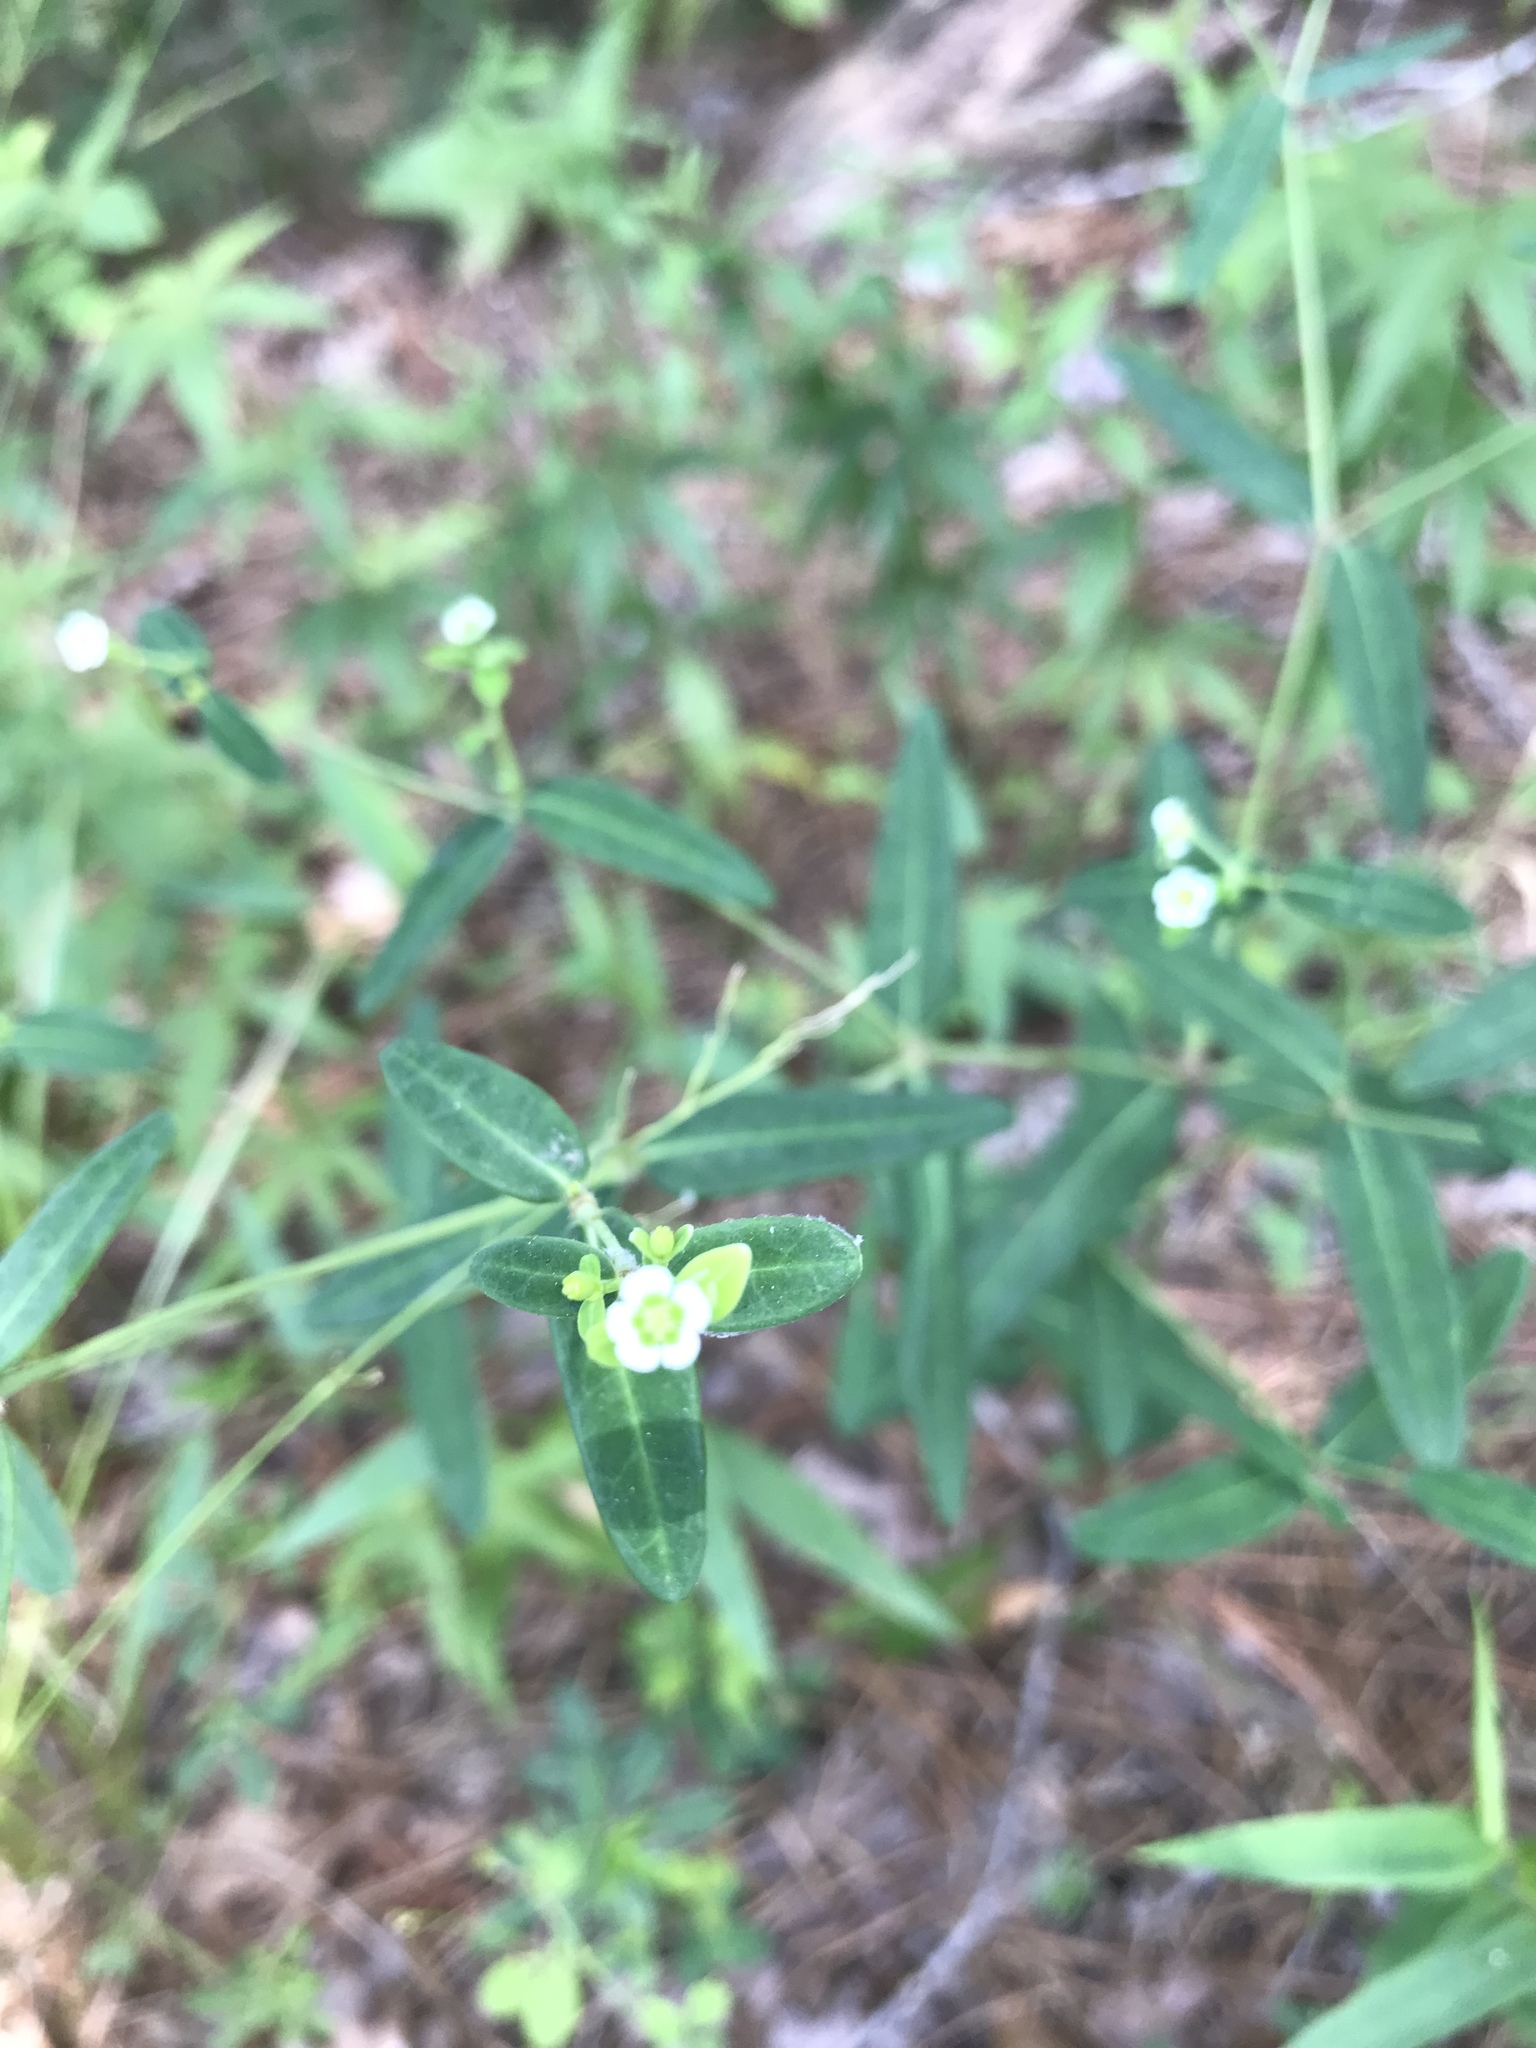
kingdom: Plantae
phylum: Tracheophyta
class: Magnoliopsida
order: Malpighiales
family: Euphorbiaceae
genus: Euphorbia
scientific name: Euphorbia pubentissima
